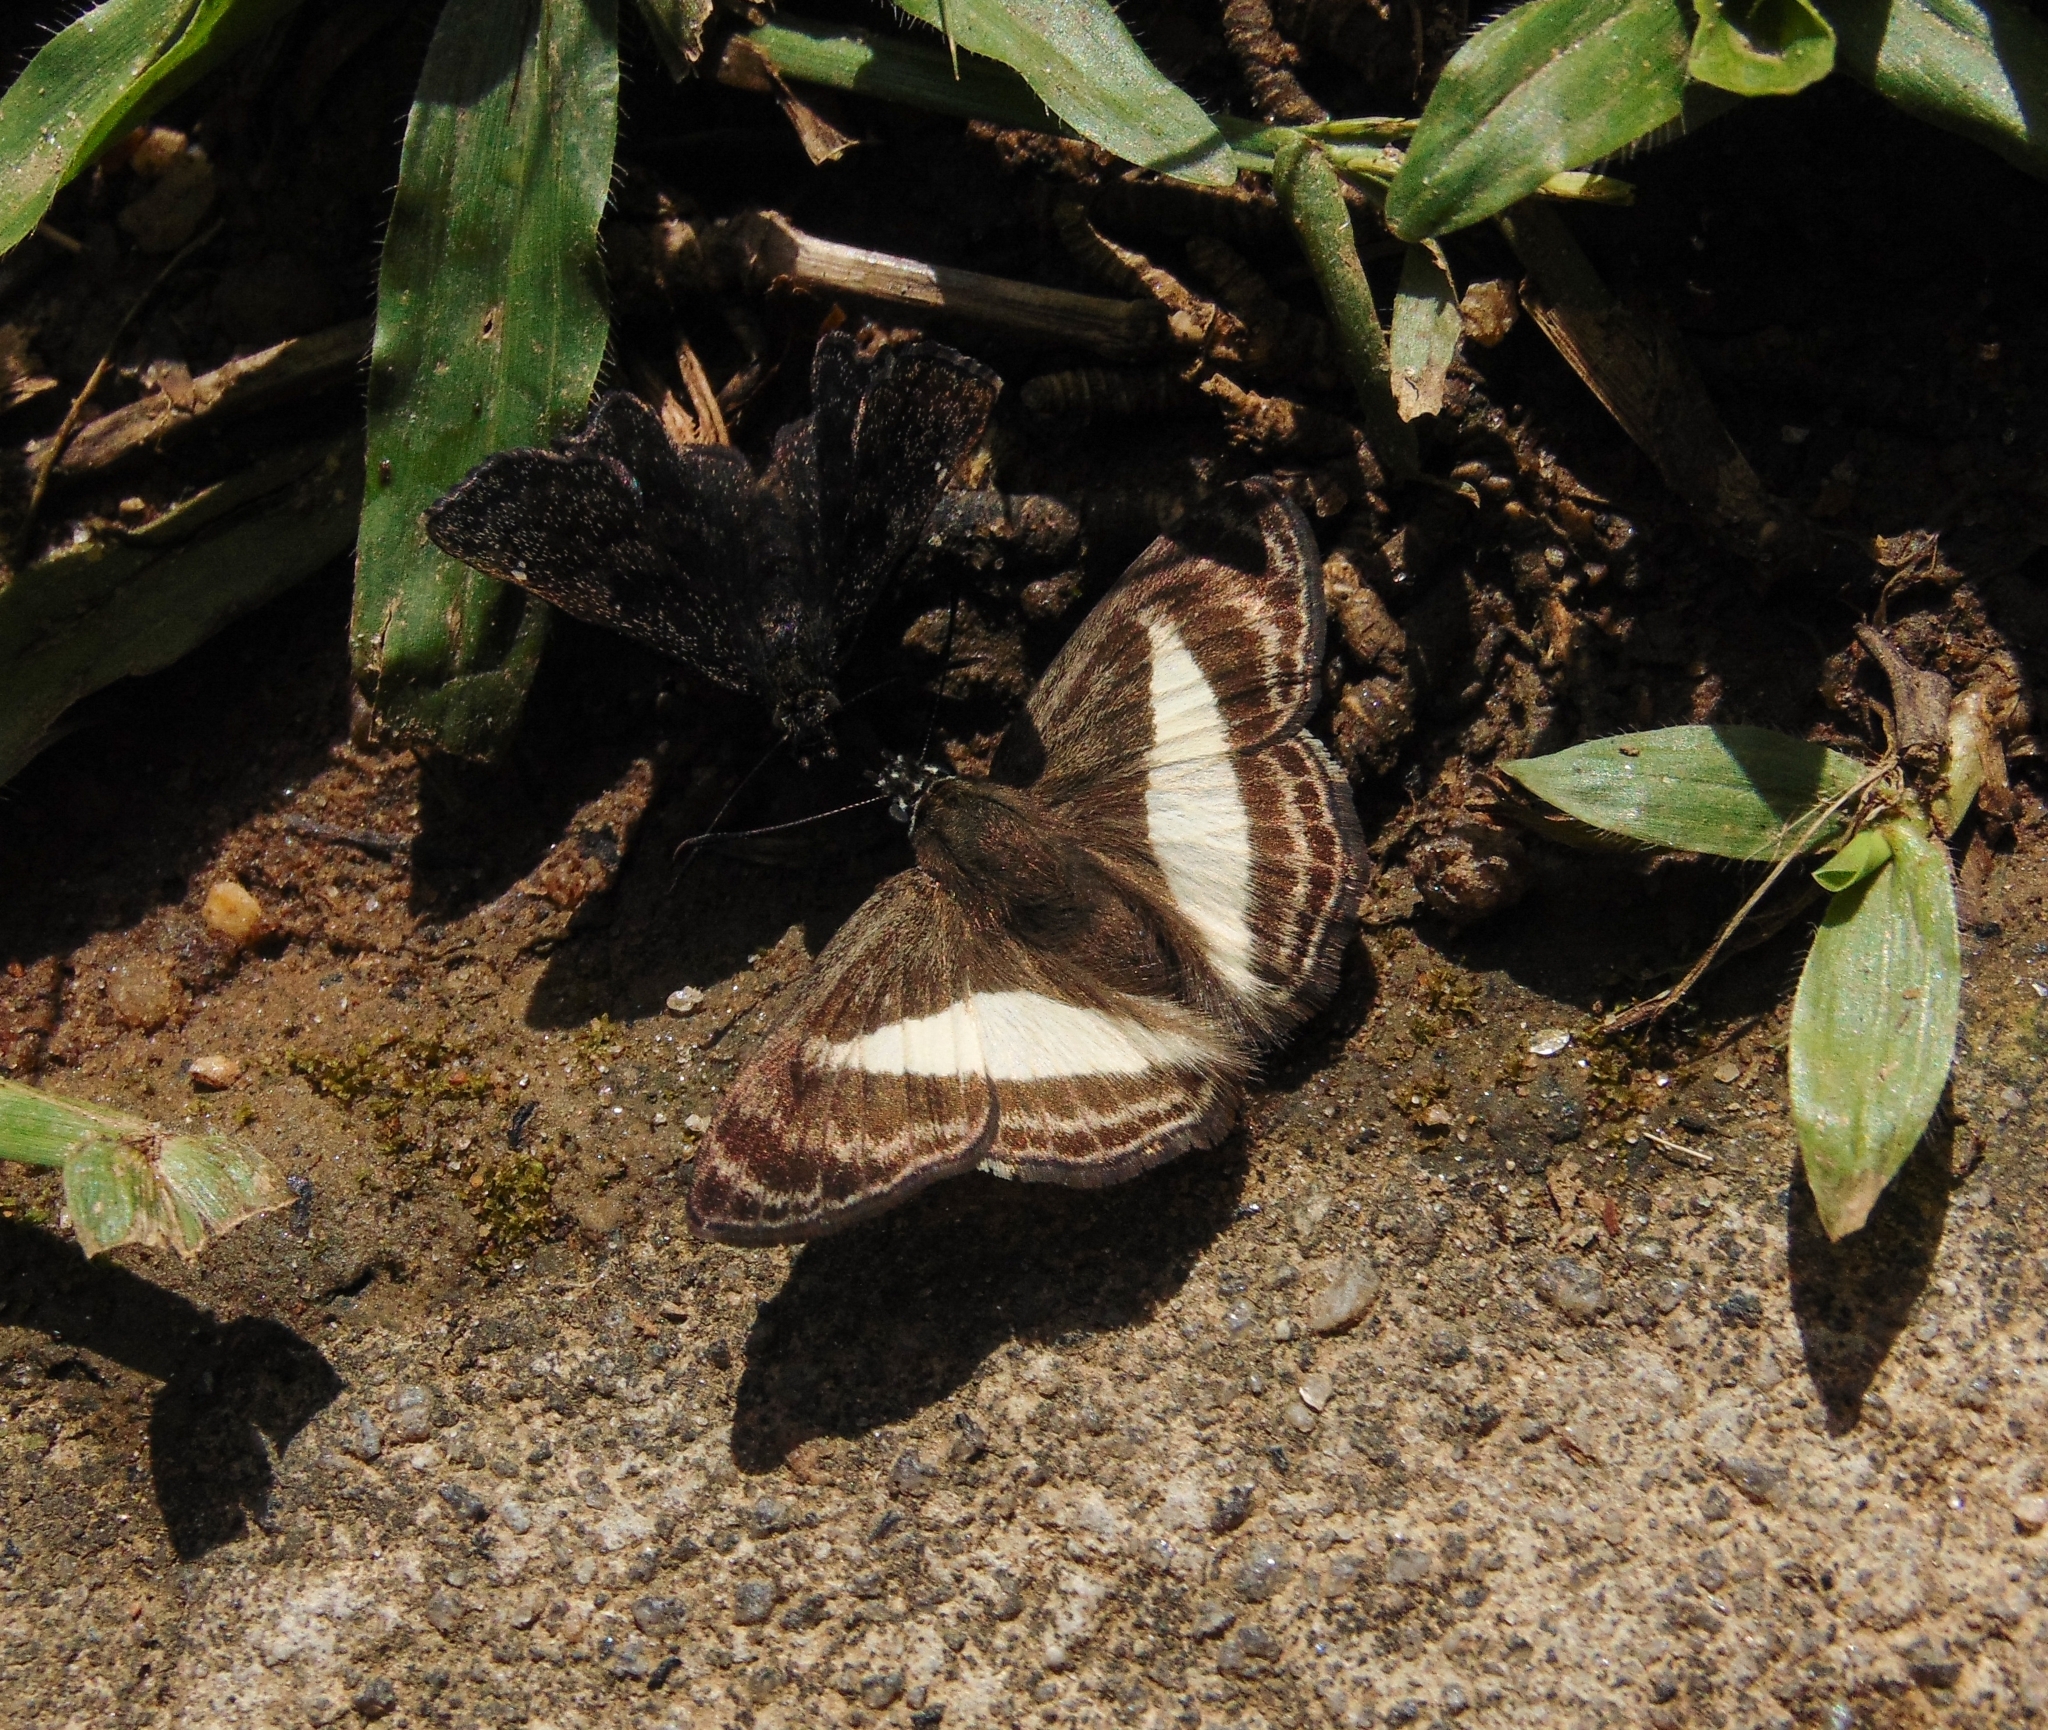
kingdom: Animalia
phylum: Arthropoda
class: Insecta
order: Lepidoptera
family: Hesperiidae
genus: Sophista
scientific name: Sophista aristoteles
